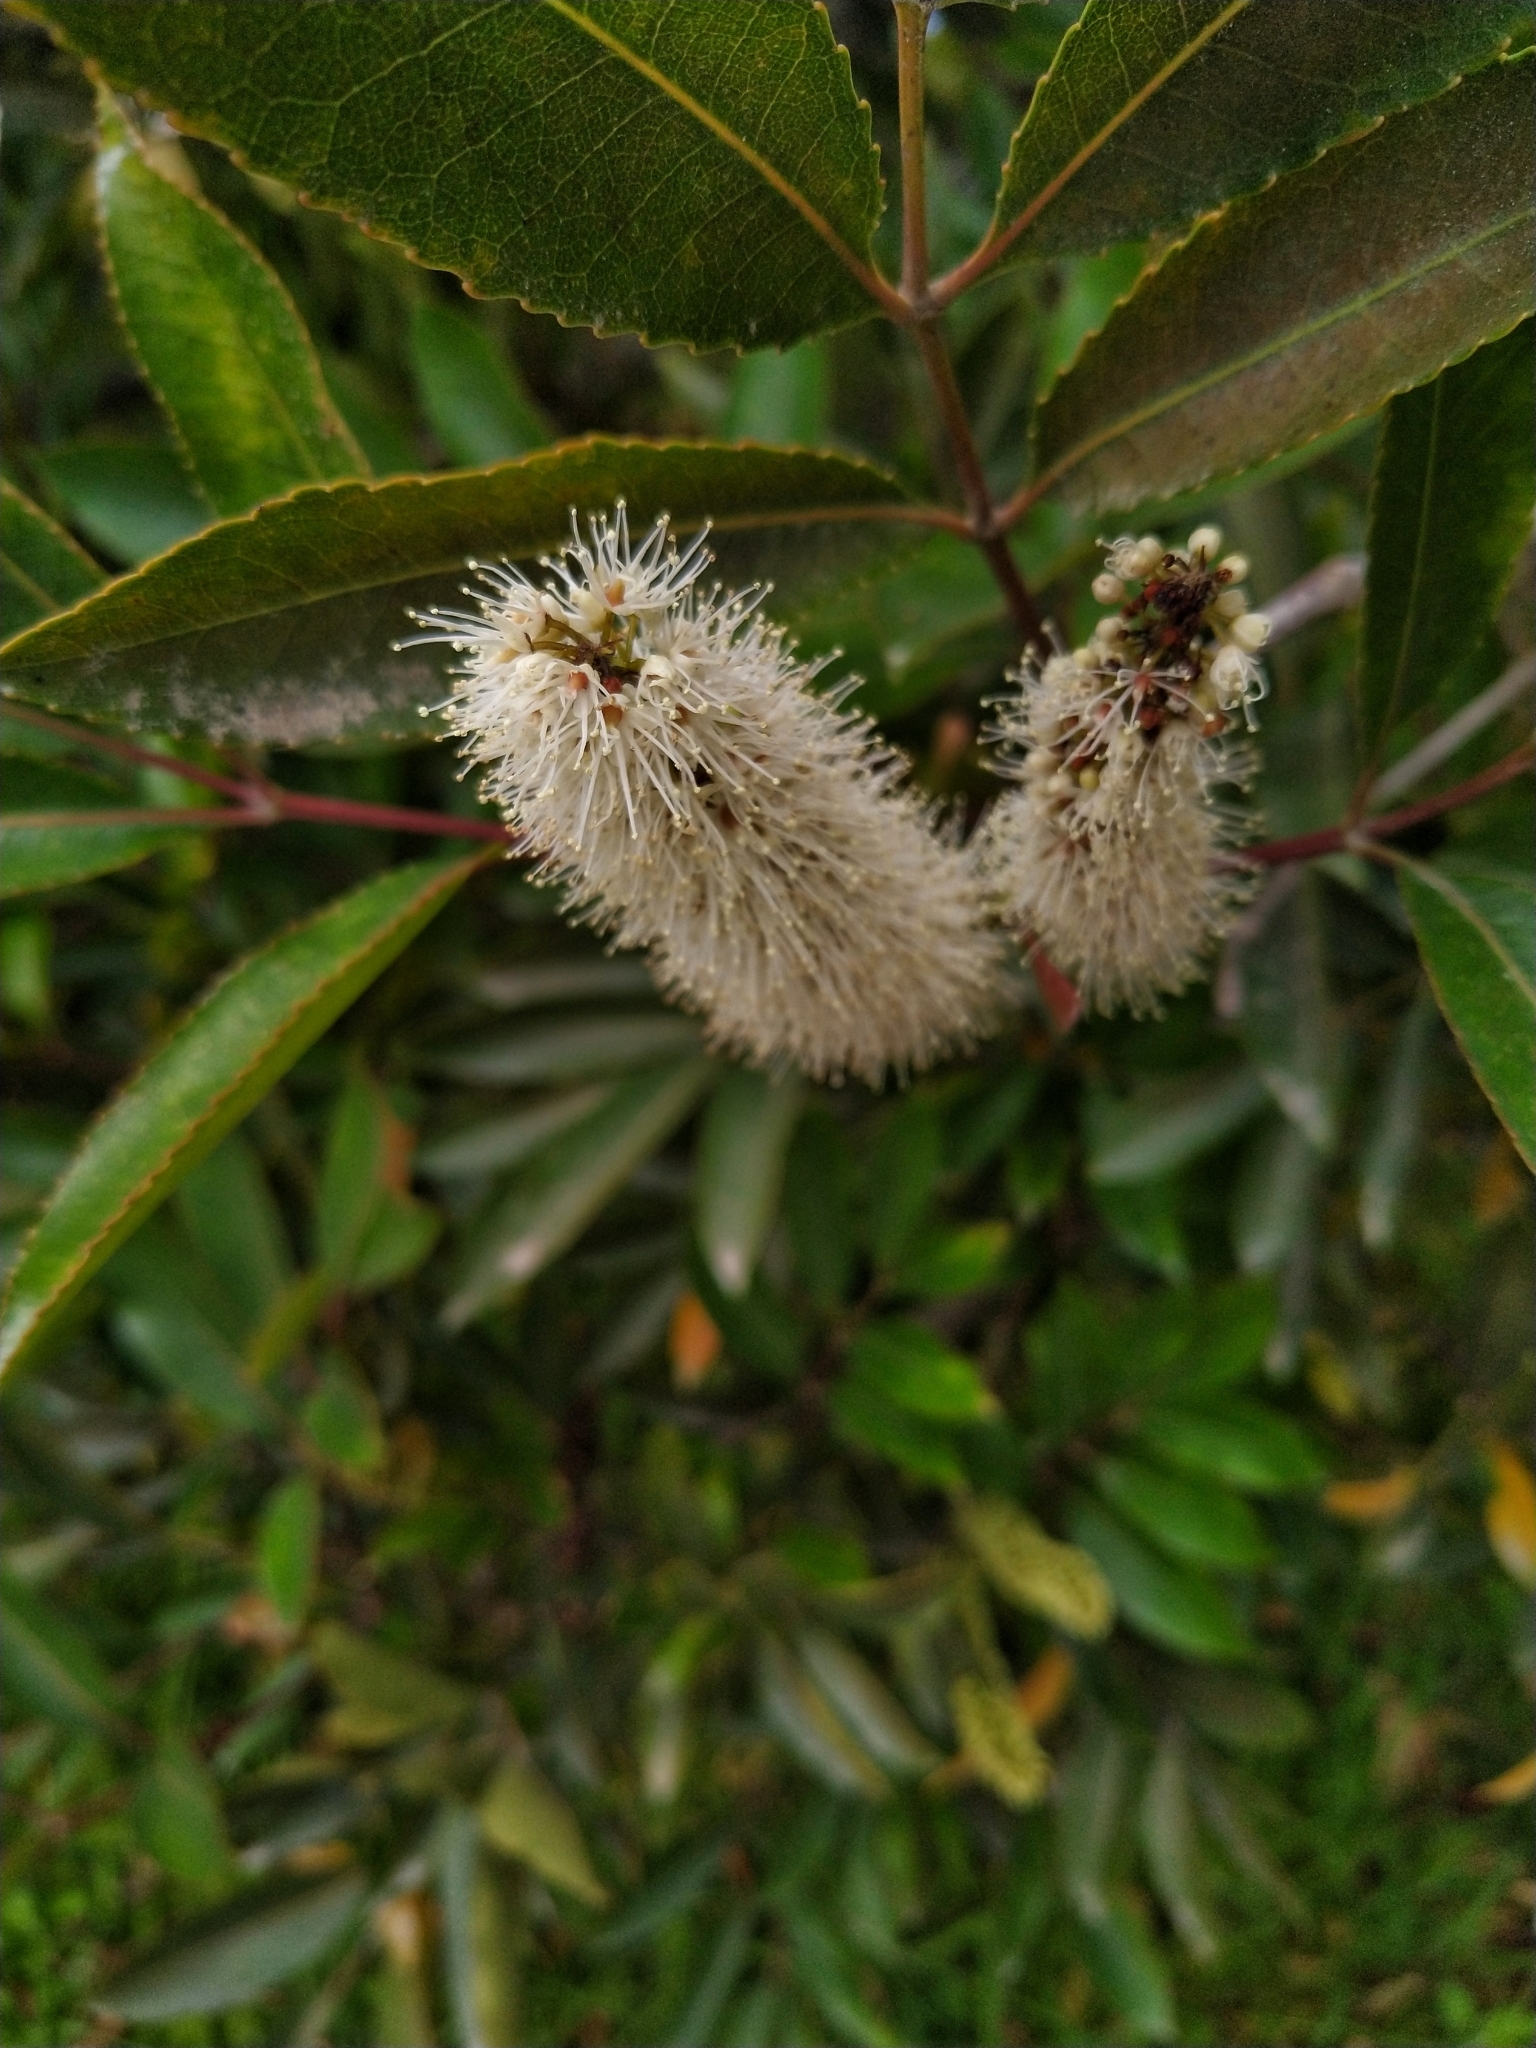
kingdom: Plantae
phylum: Tracheophyta
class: Magnoliopsida
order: Oxalidales
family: Cunoniaceae
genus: Cunonia
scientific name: Cunonia capensis
